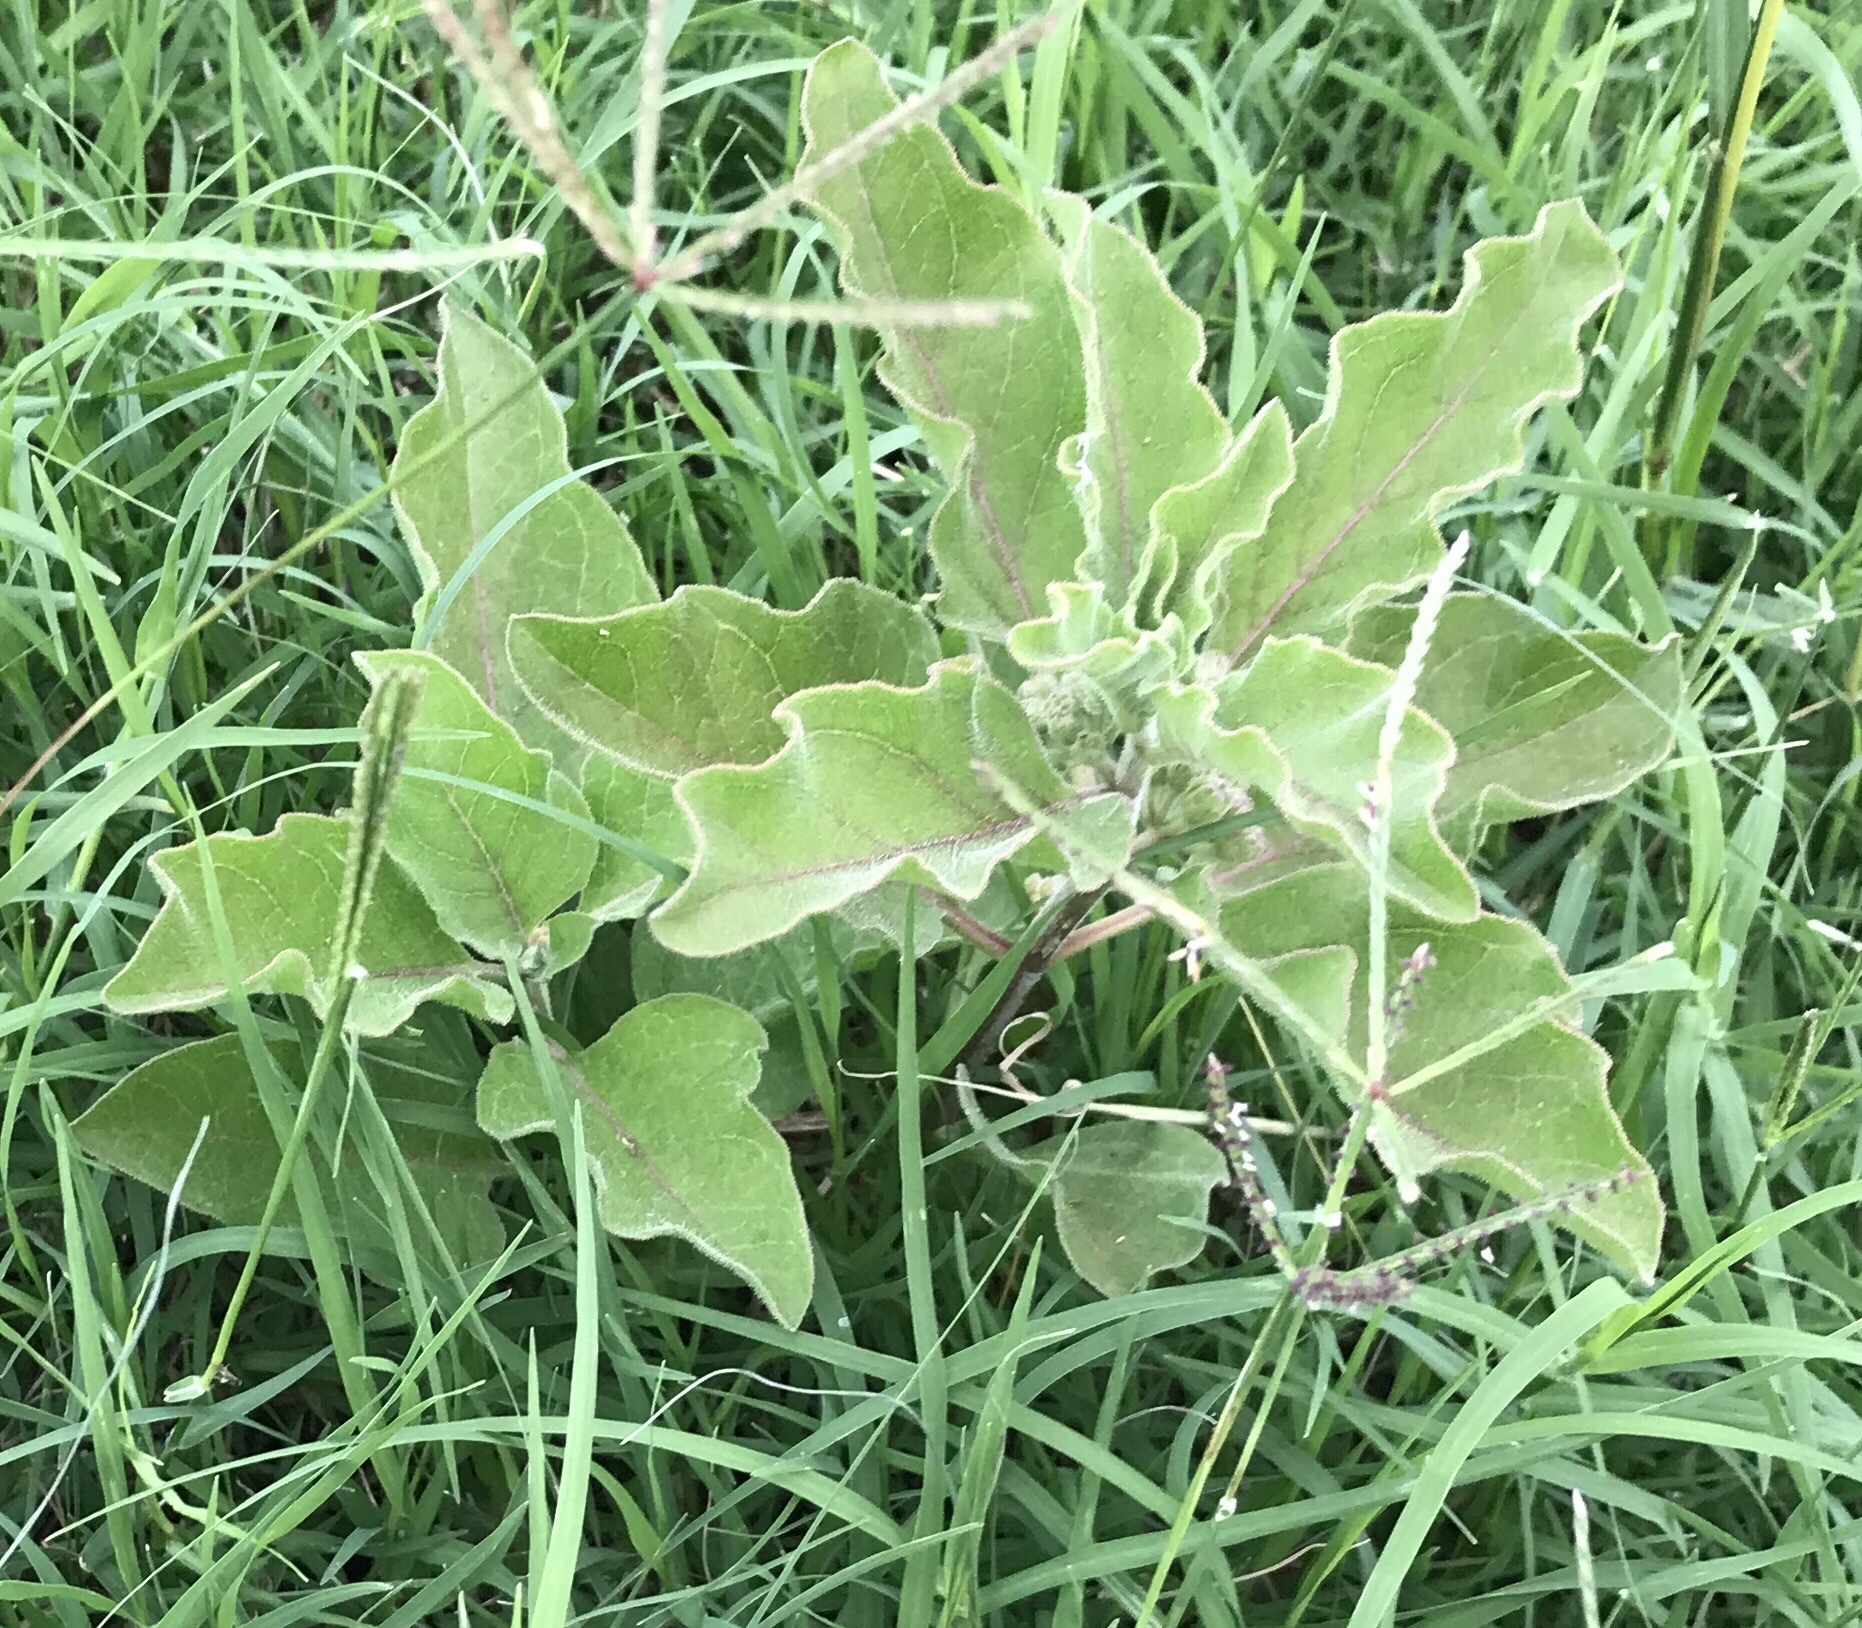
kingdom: Plantae
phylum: Tracheophyta
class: Magnoliopsida
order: Gentianales
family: Apocynaceae
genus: Asclepias
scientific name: Asclepias oenotheroides
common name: Zizotes milkweed
